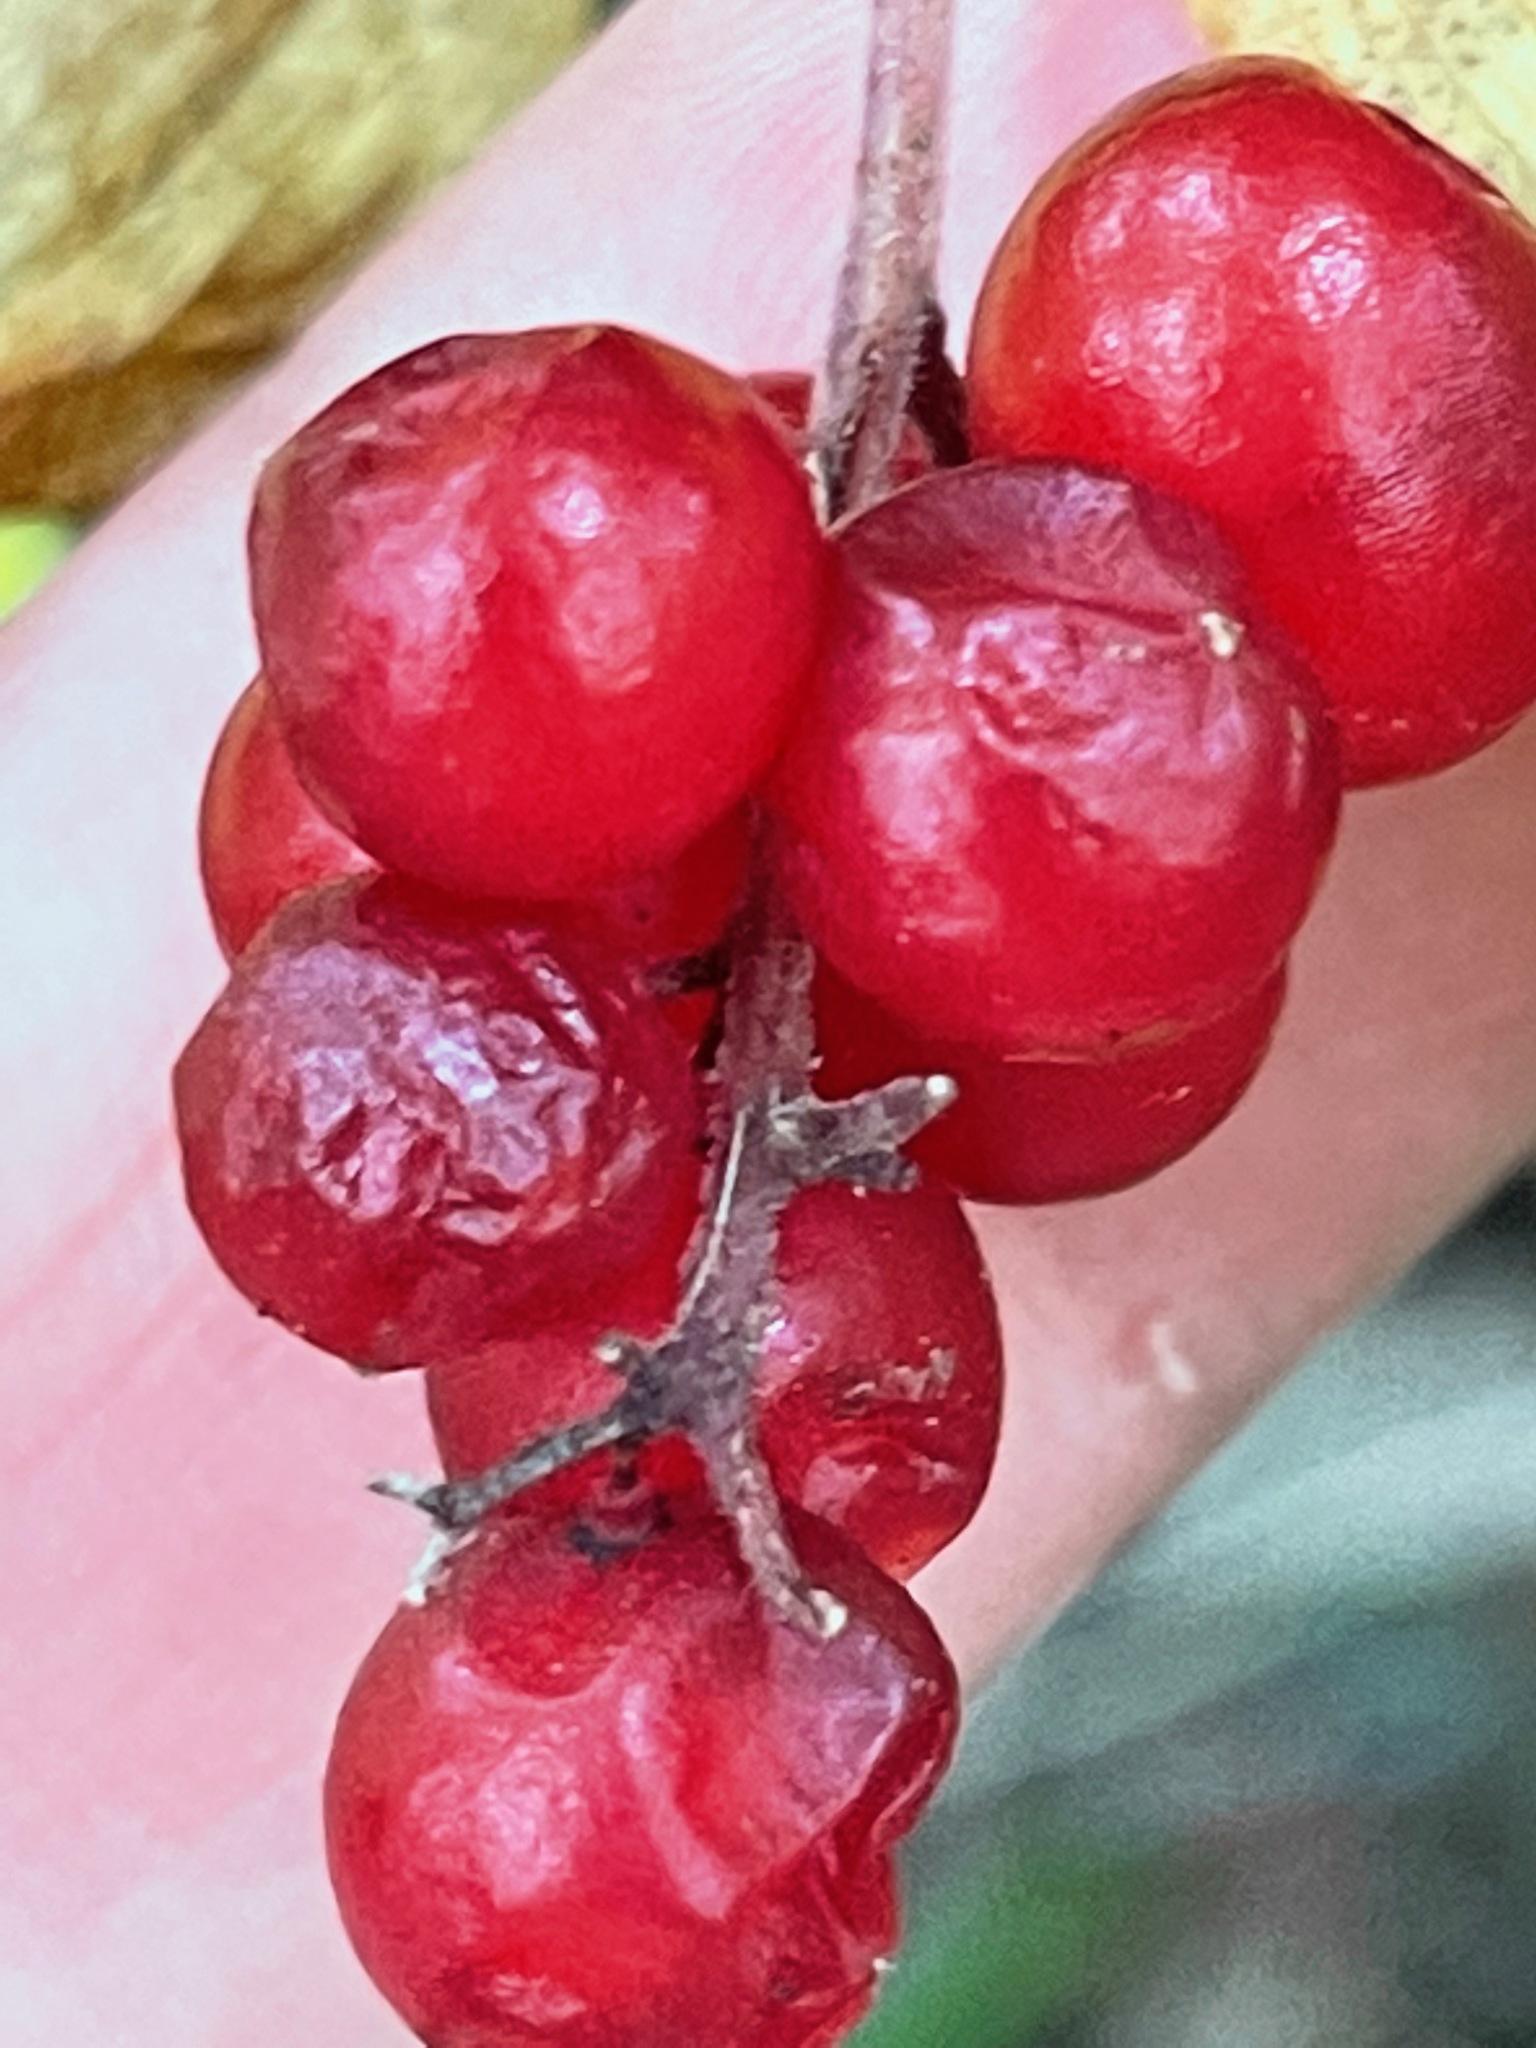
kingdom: Plantae
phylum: Tracheophyta
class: Liliopsida
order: Asparagales
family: Asparagaceae
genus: Maianthemum
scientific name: Maianthemum racemosum
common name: False spikenard
